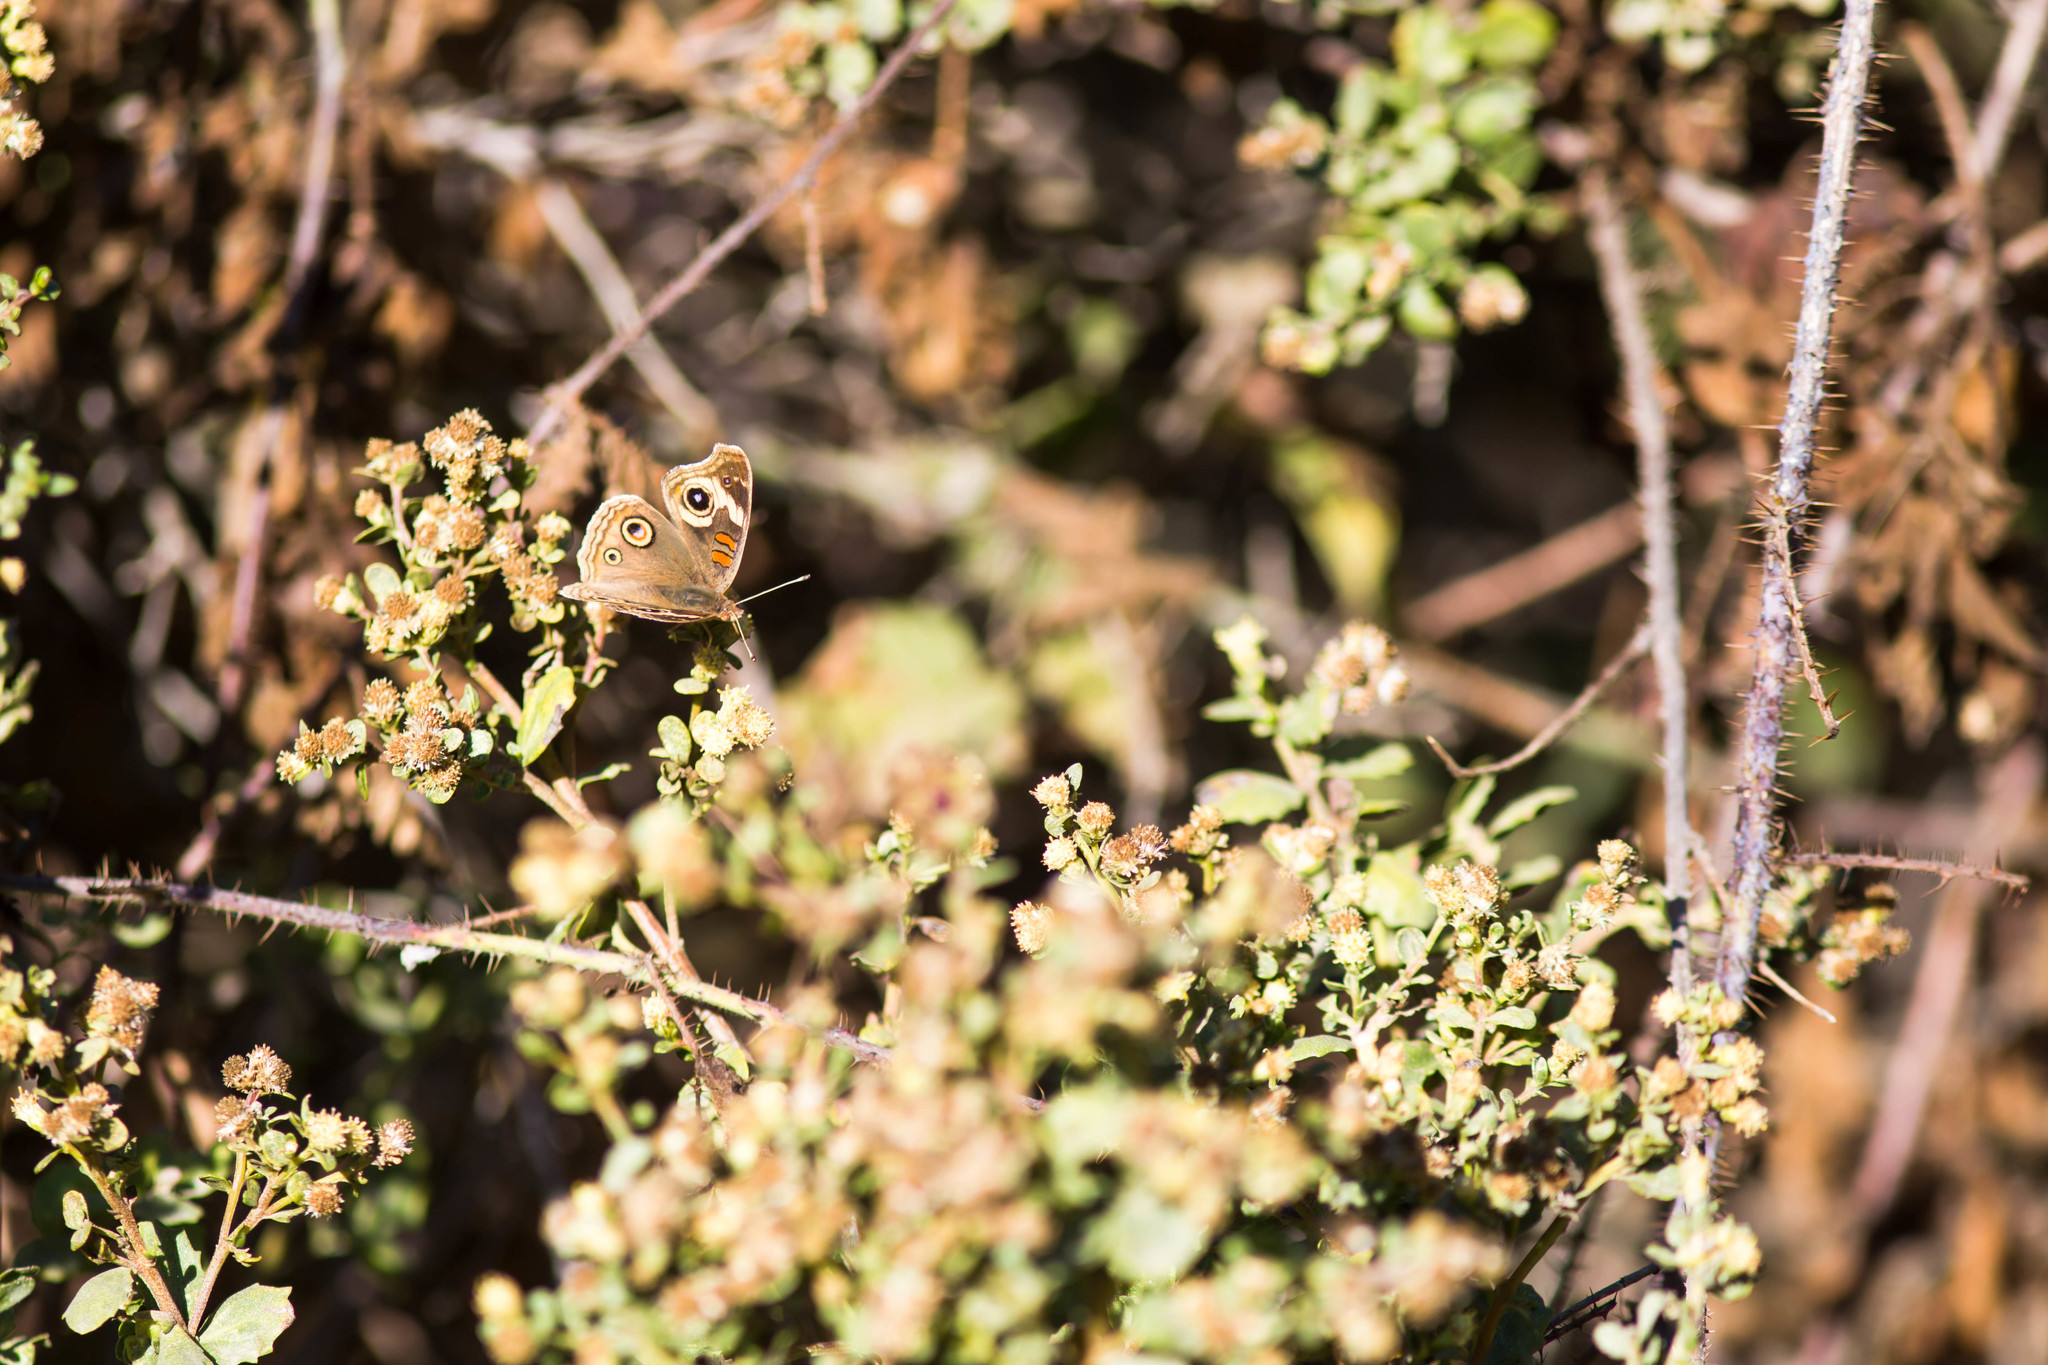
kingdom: Animalia
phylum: Arthropoda
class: Insecta
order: Lepidoptera
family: Nymphalidae
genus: Junonia
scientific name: Junonia grisea
